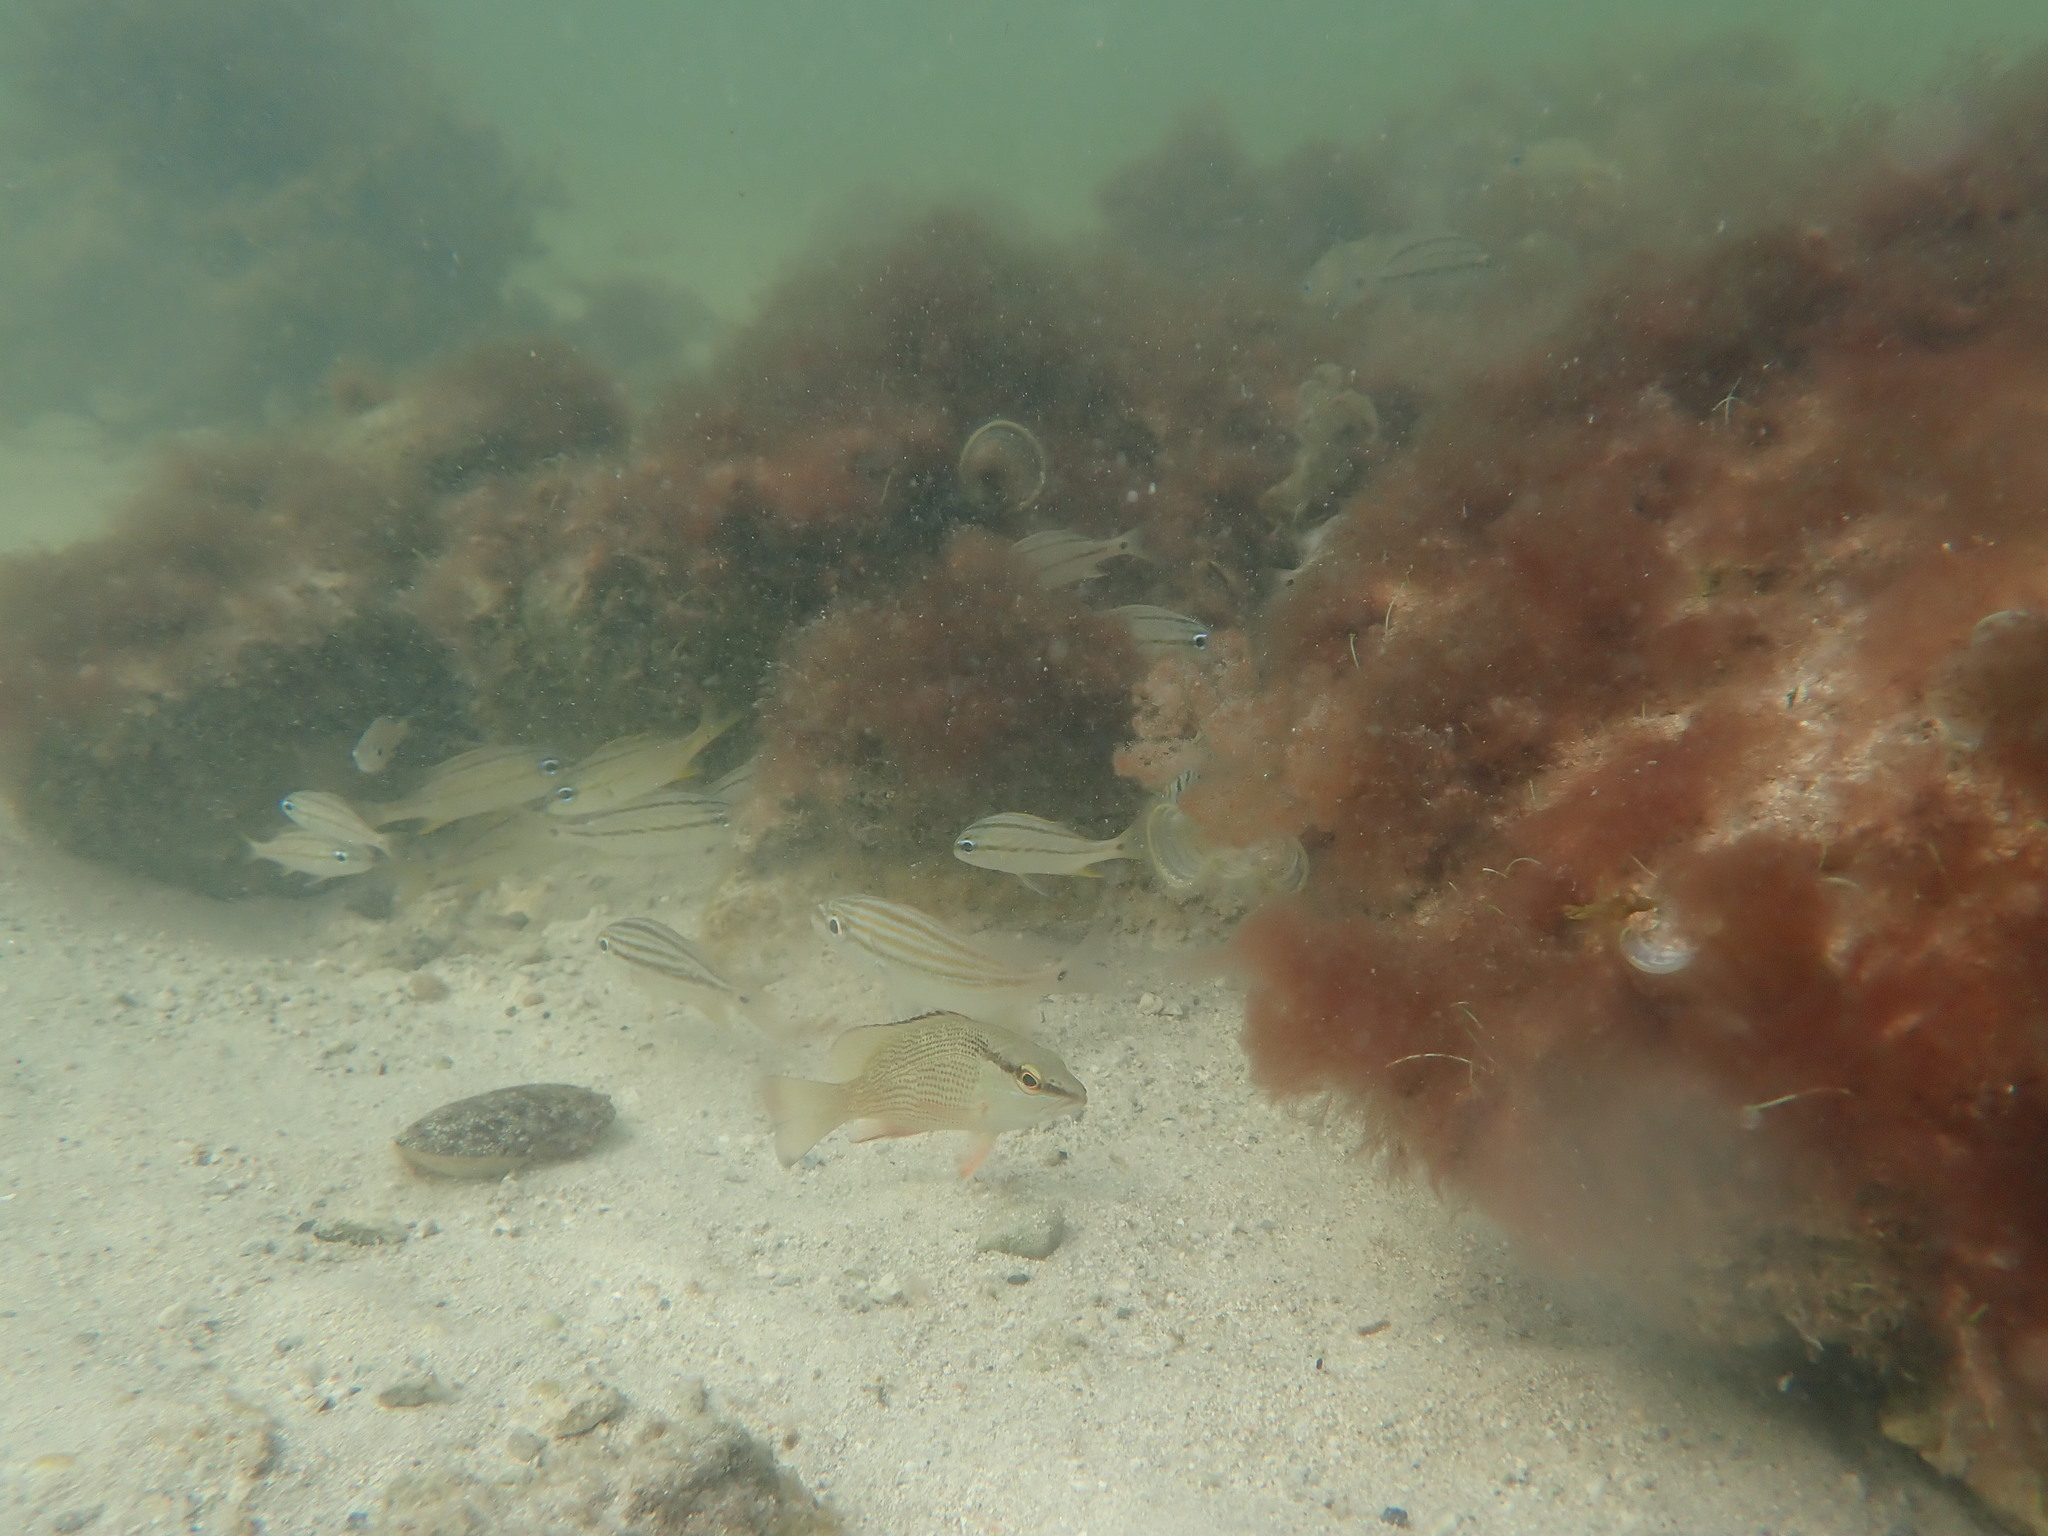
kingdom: Animalia
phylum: Chordata
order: Perciformes
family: Lutjanidae
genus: Lutjanus
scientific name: Lutjanus griseus
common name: Gray snapper
